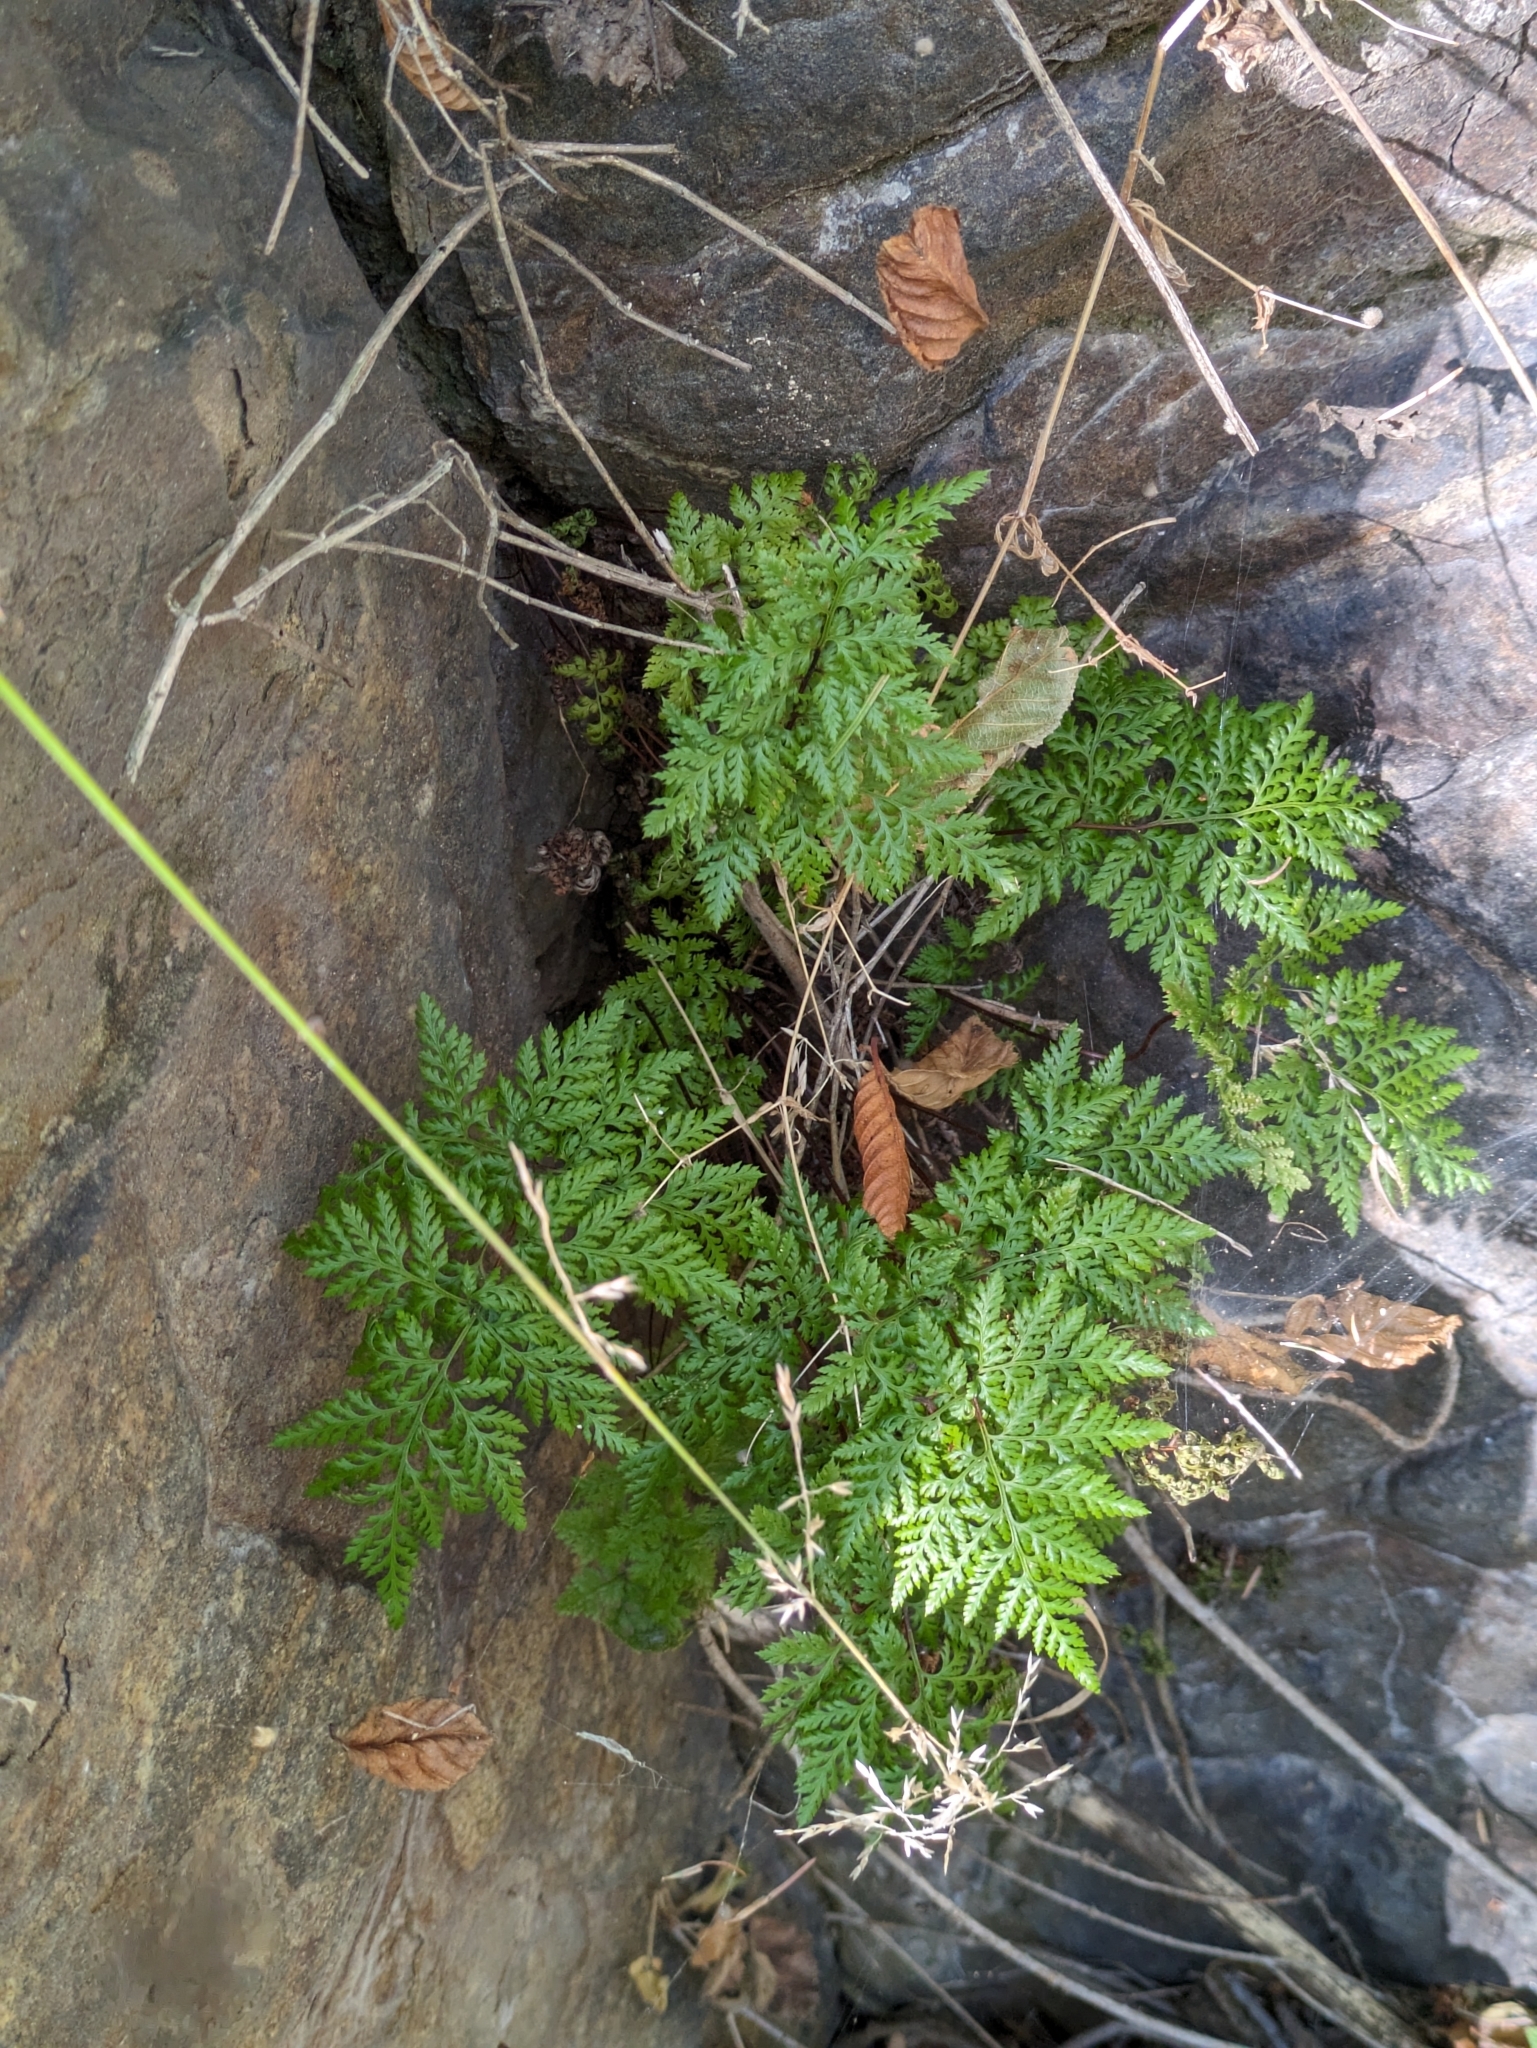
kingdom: Plantae
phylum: Tracheophyta
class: Polypodiopsida
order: Polypodiales
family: Pteridaceae
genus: Aspidotis
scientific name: Aspidotis californica
